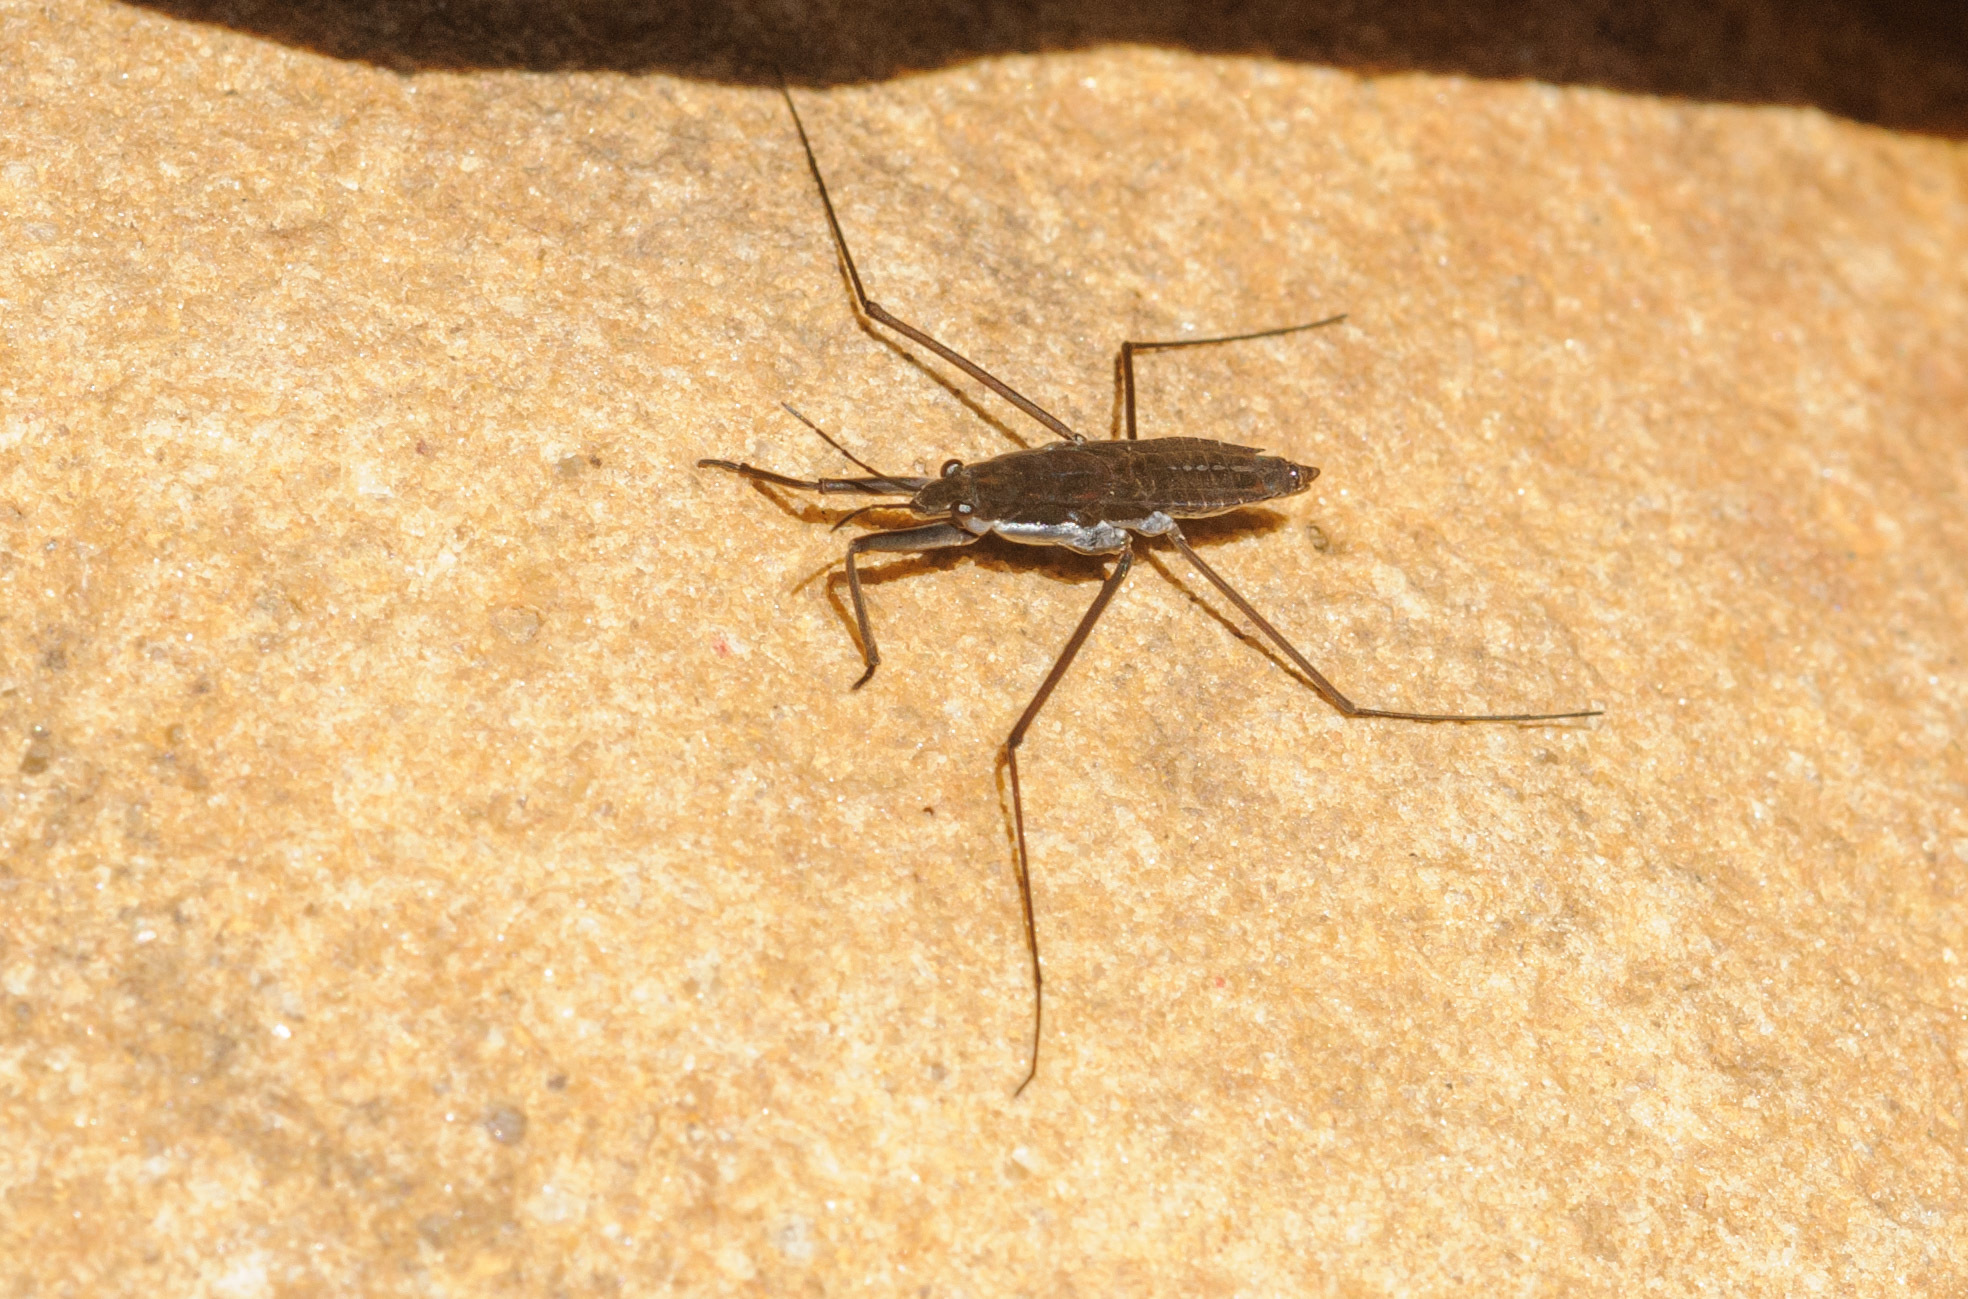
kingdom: Animalia
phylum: Arthropoda
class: Insecta
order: Hemiptera
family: Gerridae
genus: Aquarius
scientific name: Aquarius remigis
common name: Common water strider
